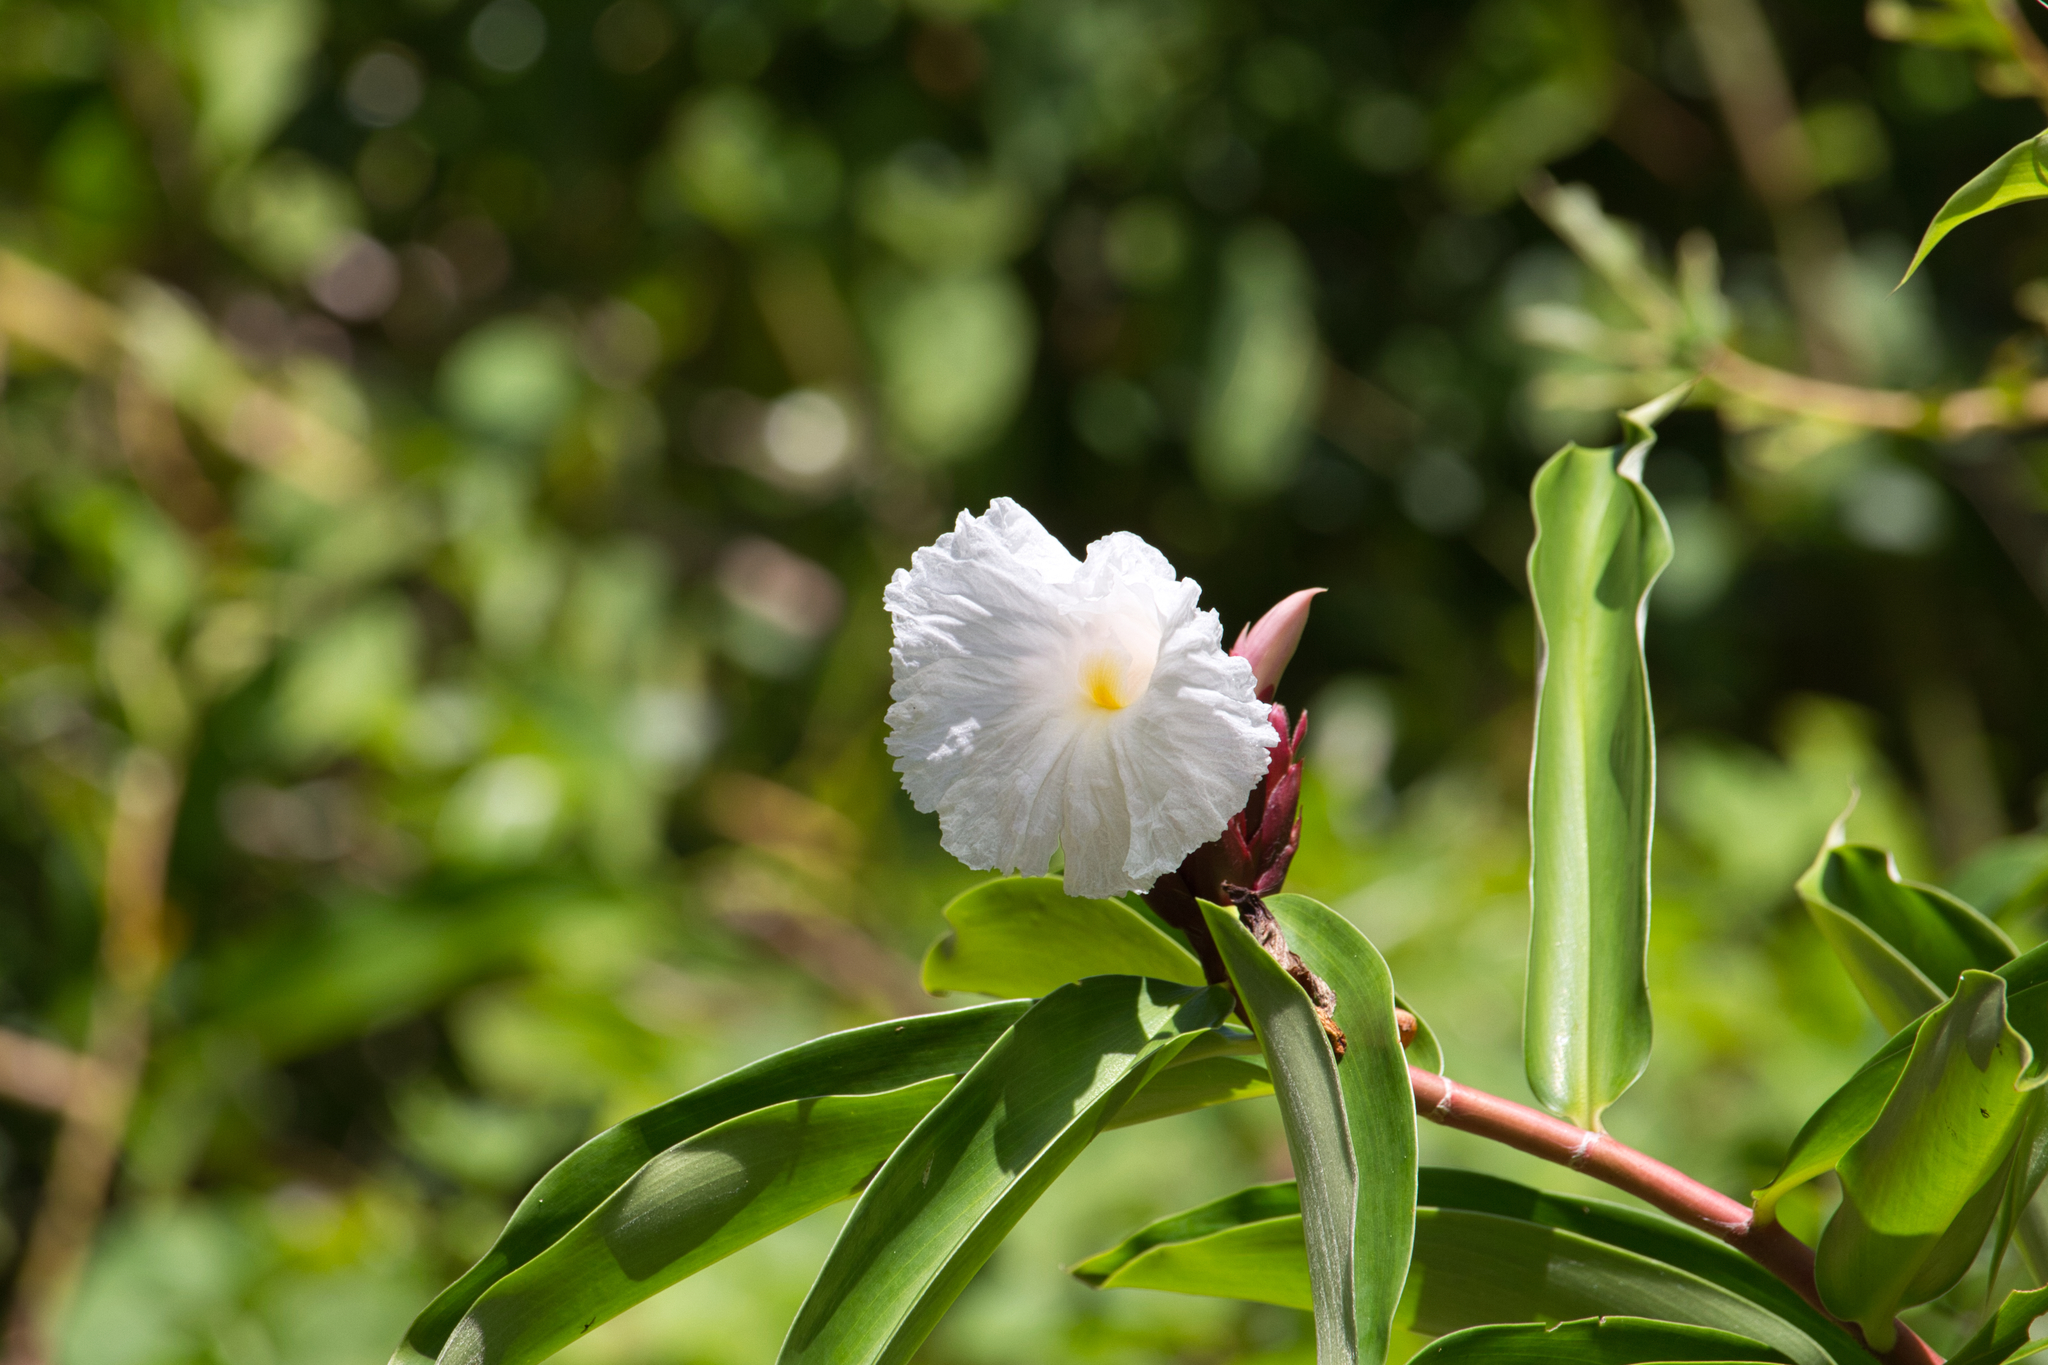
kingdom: Plantae
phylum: Tracheophyta
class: Liliopsida
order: Zingiberales
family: Costaceae
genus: Hellenia
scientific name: Hellenia speciosa
